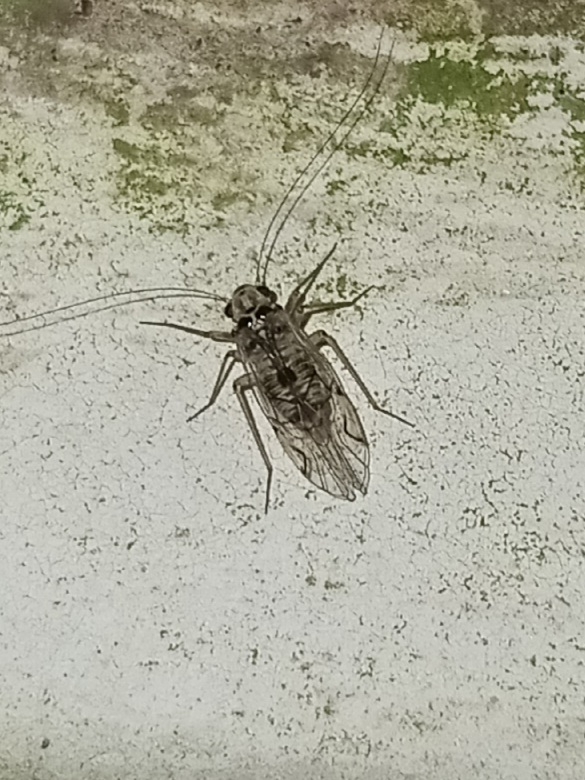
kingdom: Animalia
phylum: Arthropoda
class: Insecta
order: Psocodea
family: Psocidae
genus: Metylophorus
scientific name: Metylophorus purus
